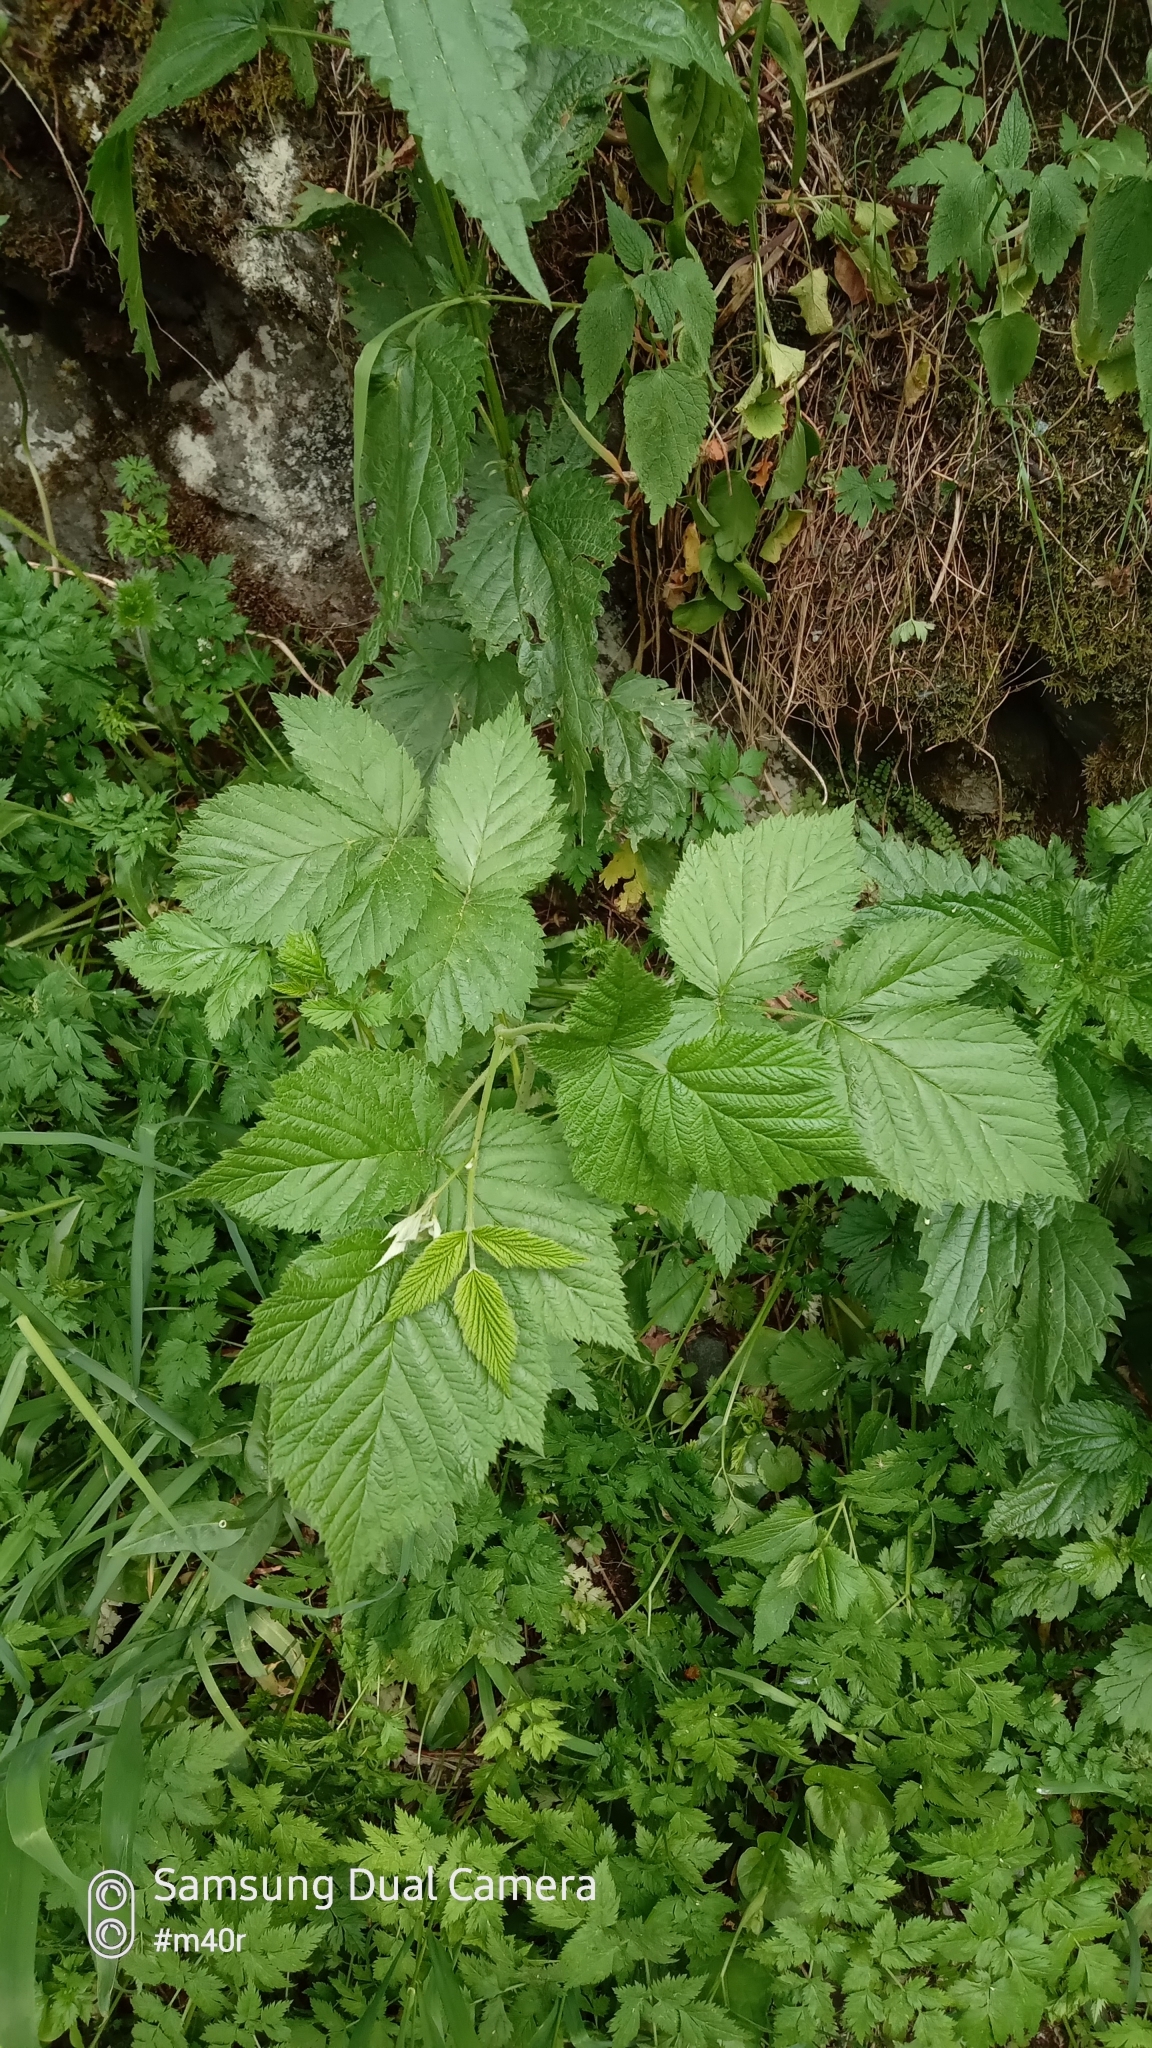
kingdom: Plantae
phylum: Tracheophyta
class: Magnoliopsida
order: Rosales
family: Rosaceae
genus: Rubus
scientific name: Rubus caesius
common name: Dewberry
